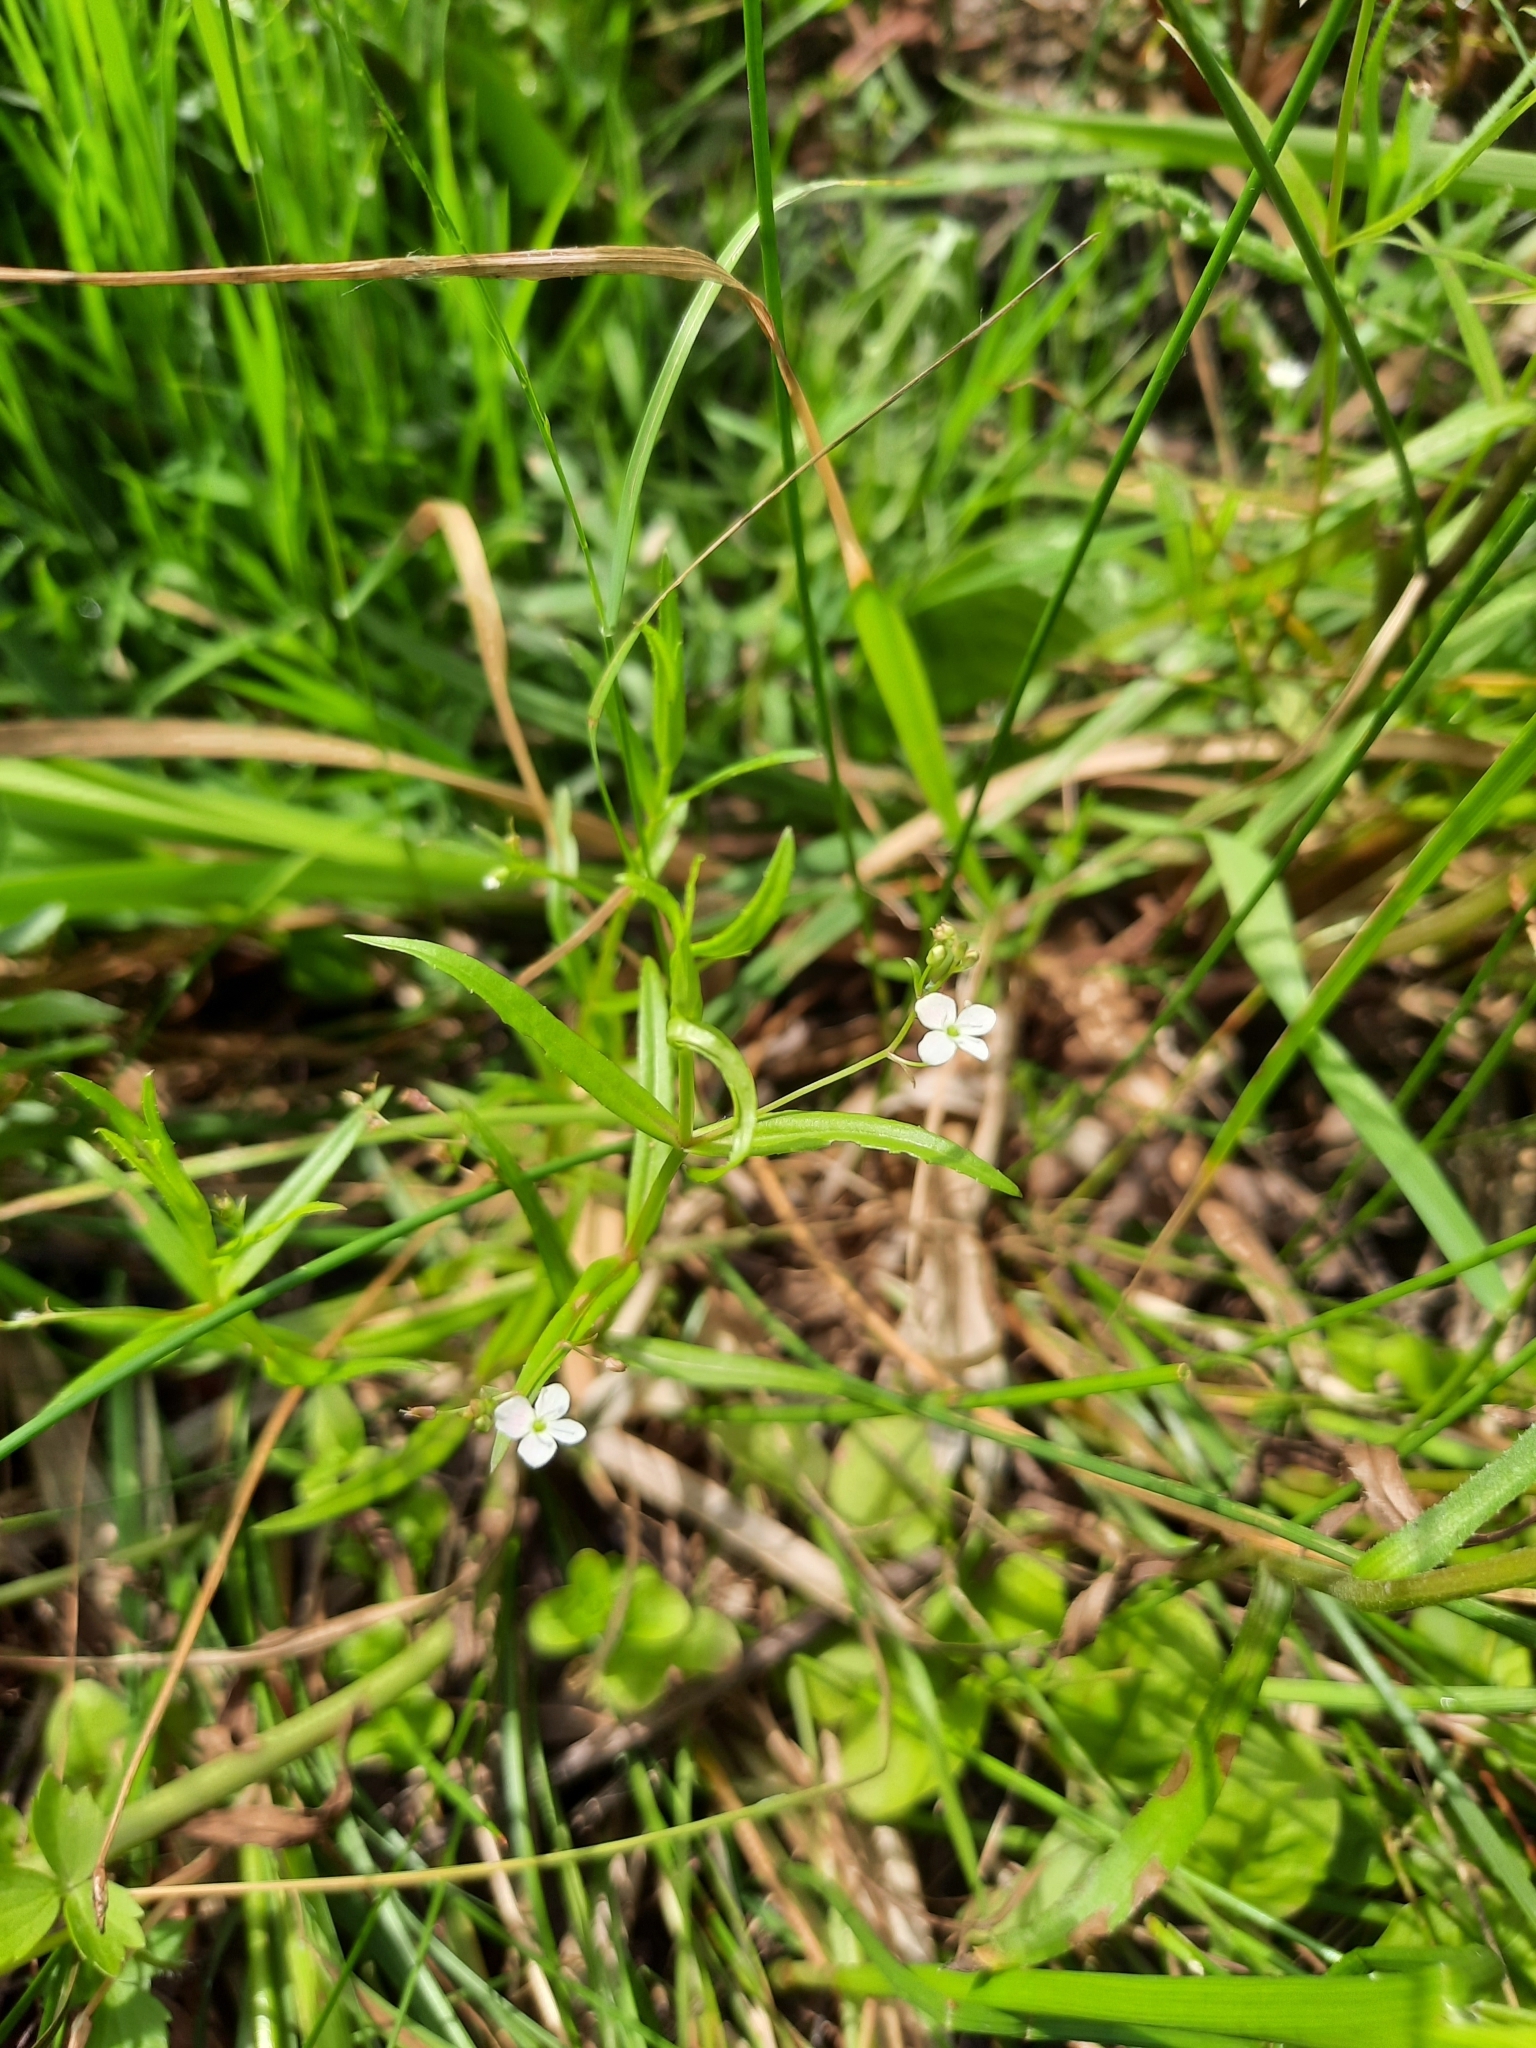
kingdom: Plantae
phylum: Tracheophyta
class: Magnoliopsida
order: Lamiales
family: Plantaginaceae
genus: Veronica
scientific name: Veronica scutellata
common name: Marsh speedwell
